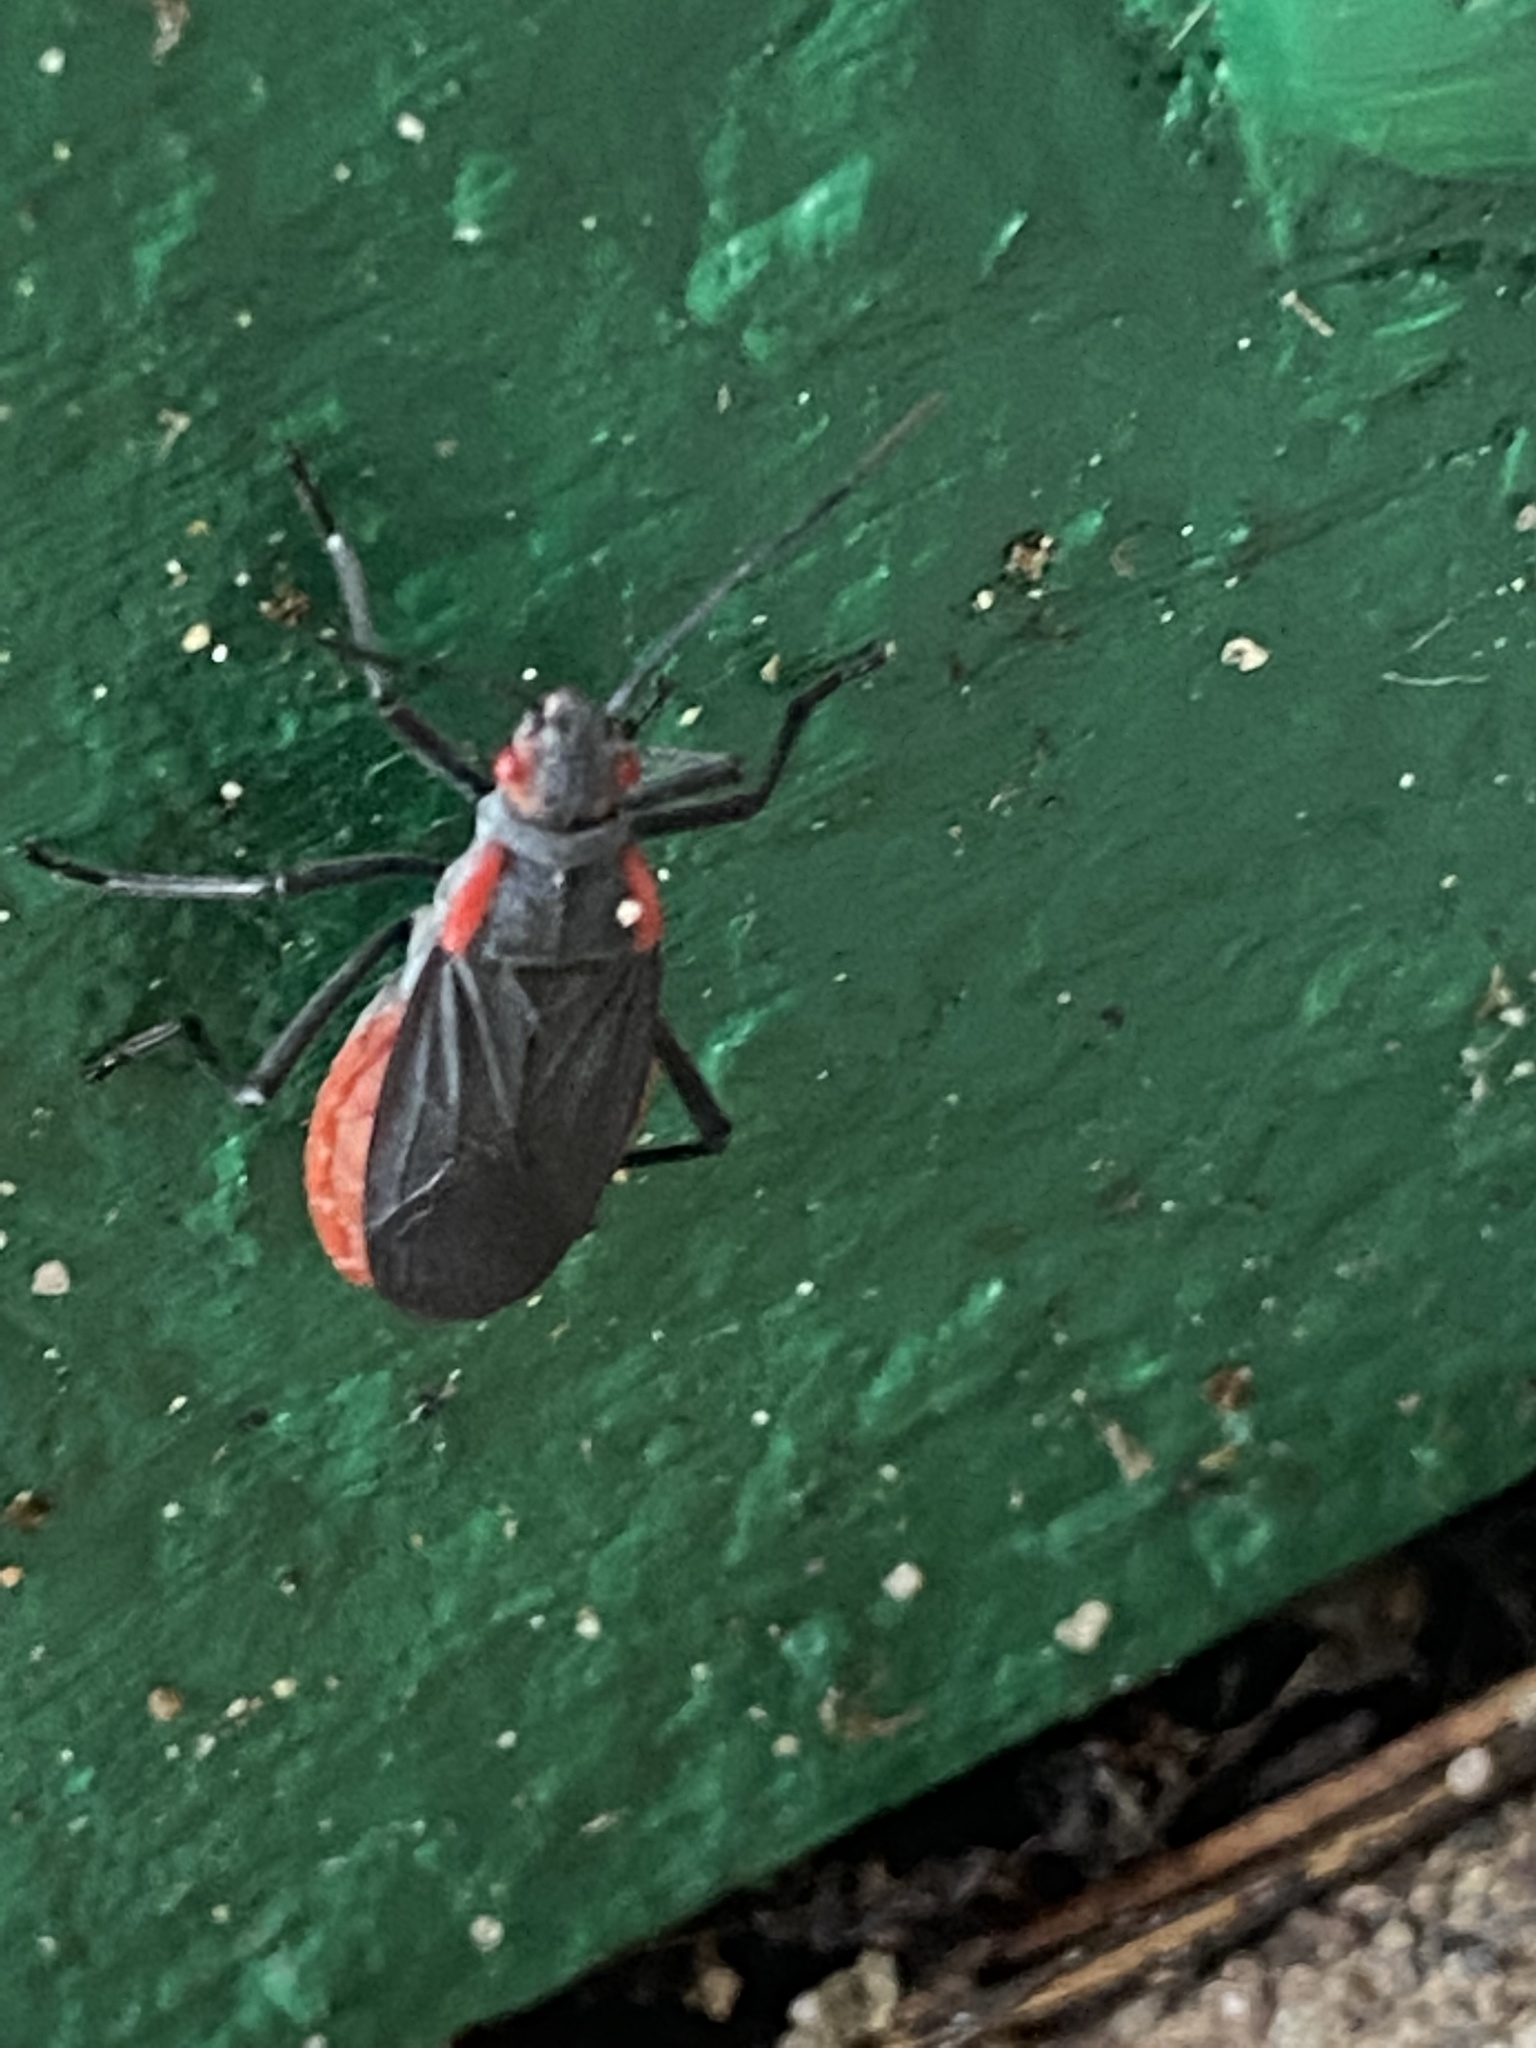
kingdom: Animalia
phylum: Arthropoda
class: Insecta
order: Hemiptera
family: Rhopalidae
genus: Jadera
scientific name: Jadera haematoloma
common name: Red-shouldered bug
